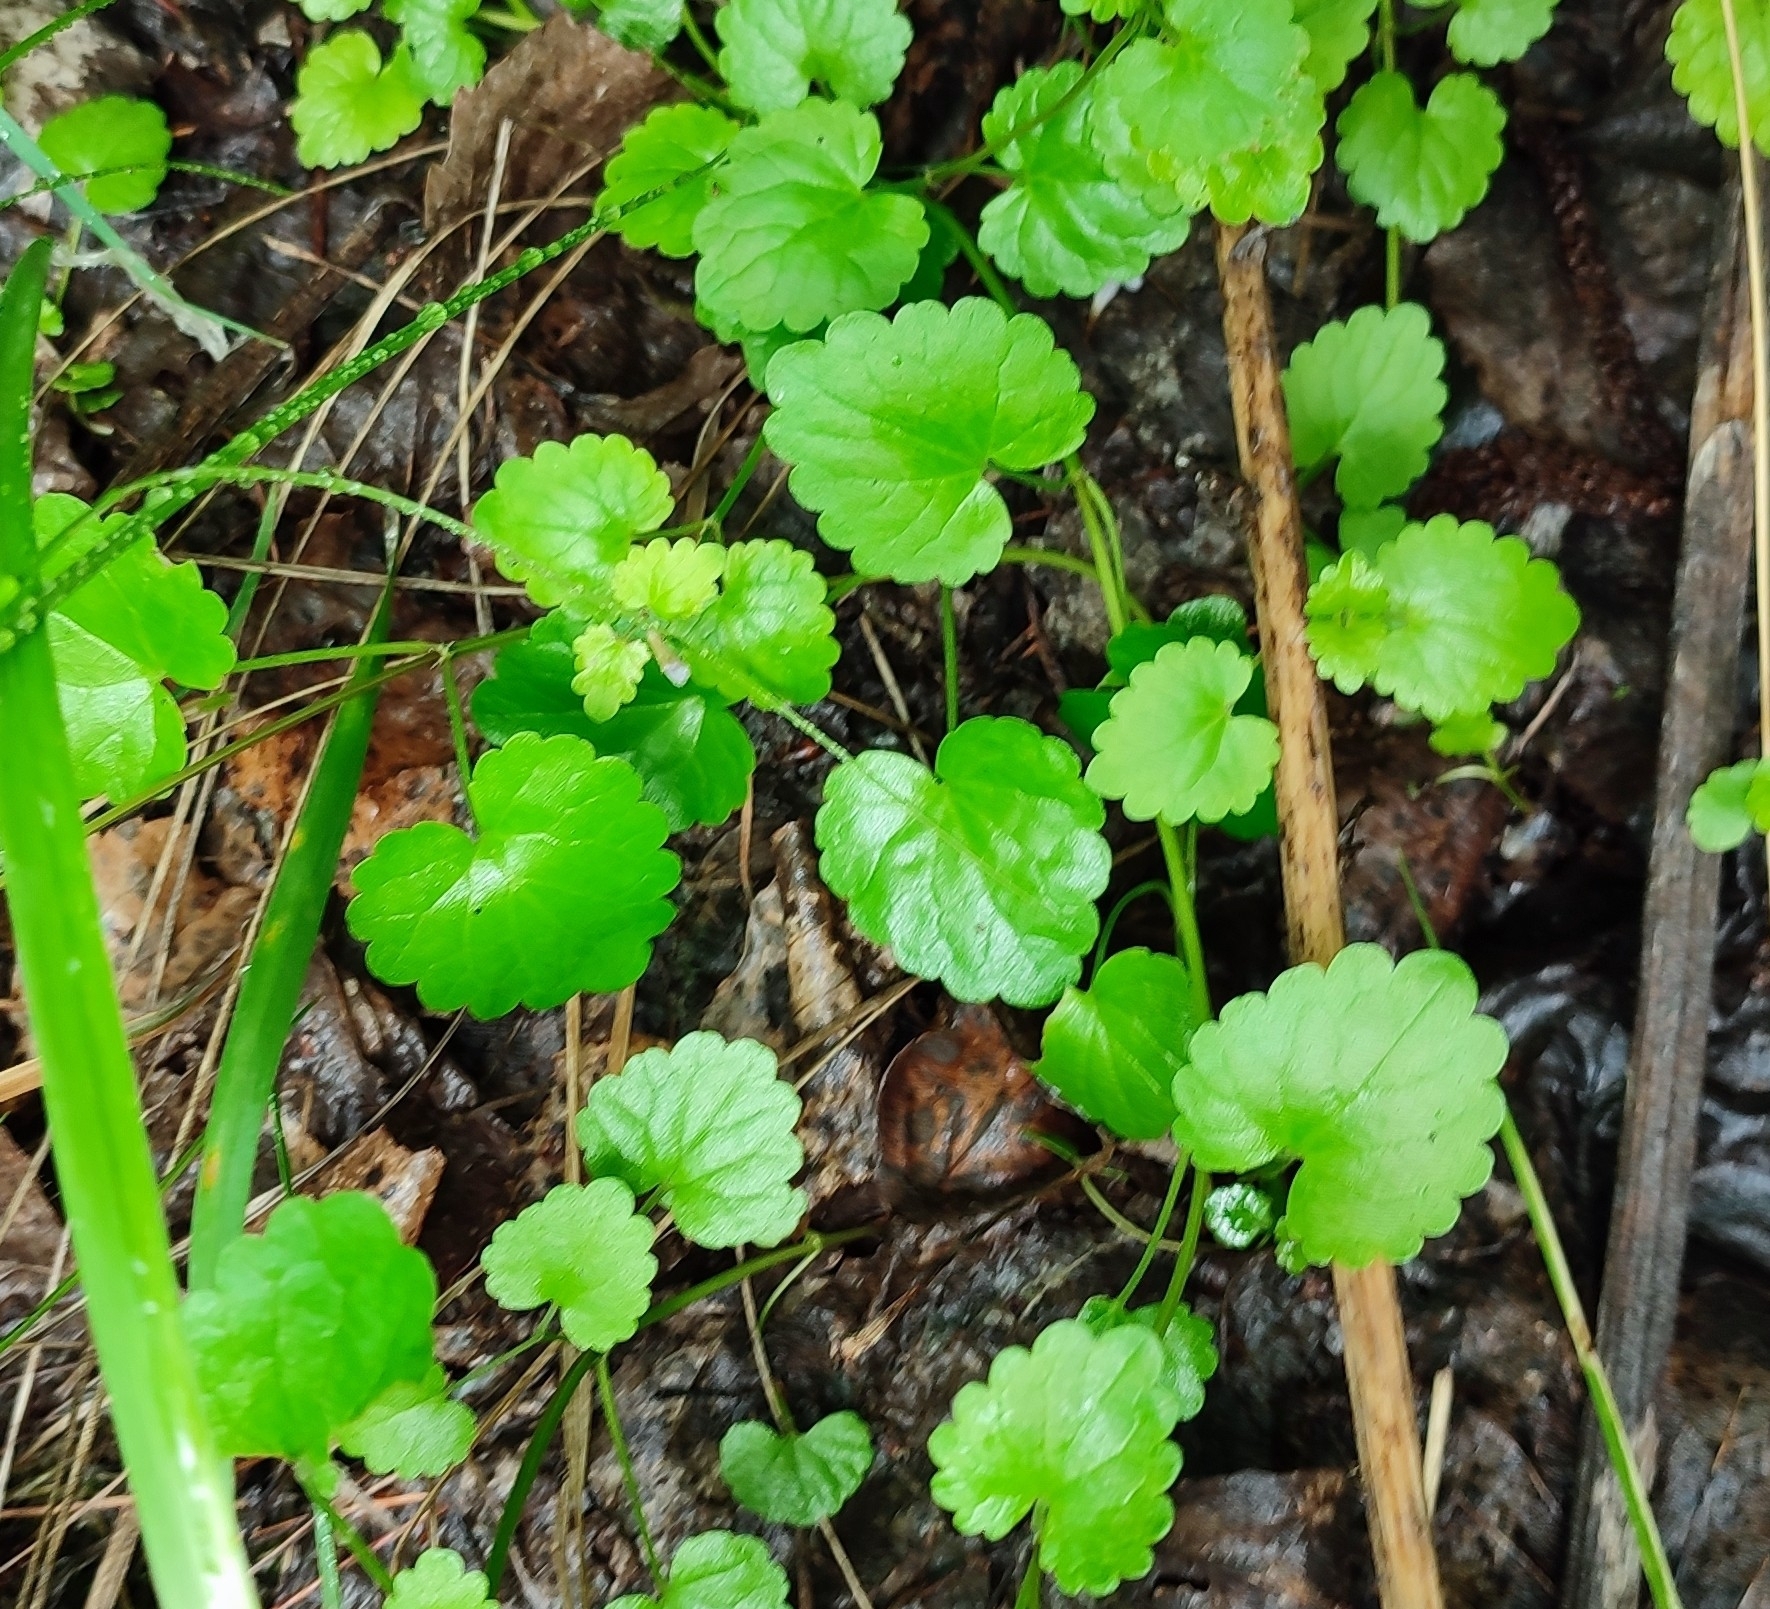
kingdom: Plantae
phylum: Tracheophyta
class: Magnoliopsida
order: Lamiales
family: Lamiaceae
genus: Glechoma
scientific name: Glechoma hederacea
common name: Ground ivy
